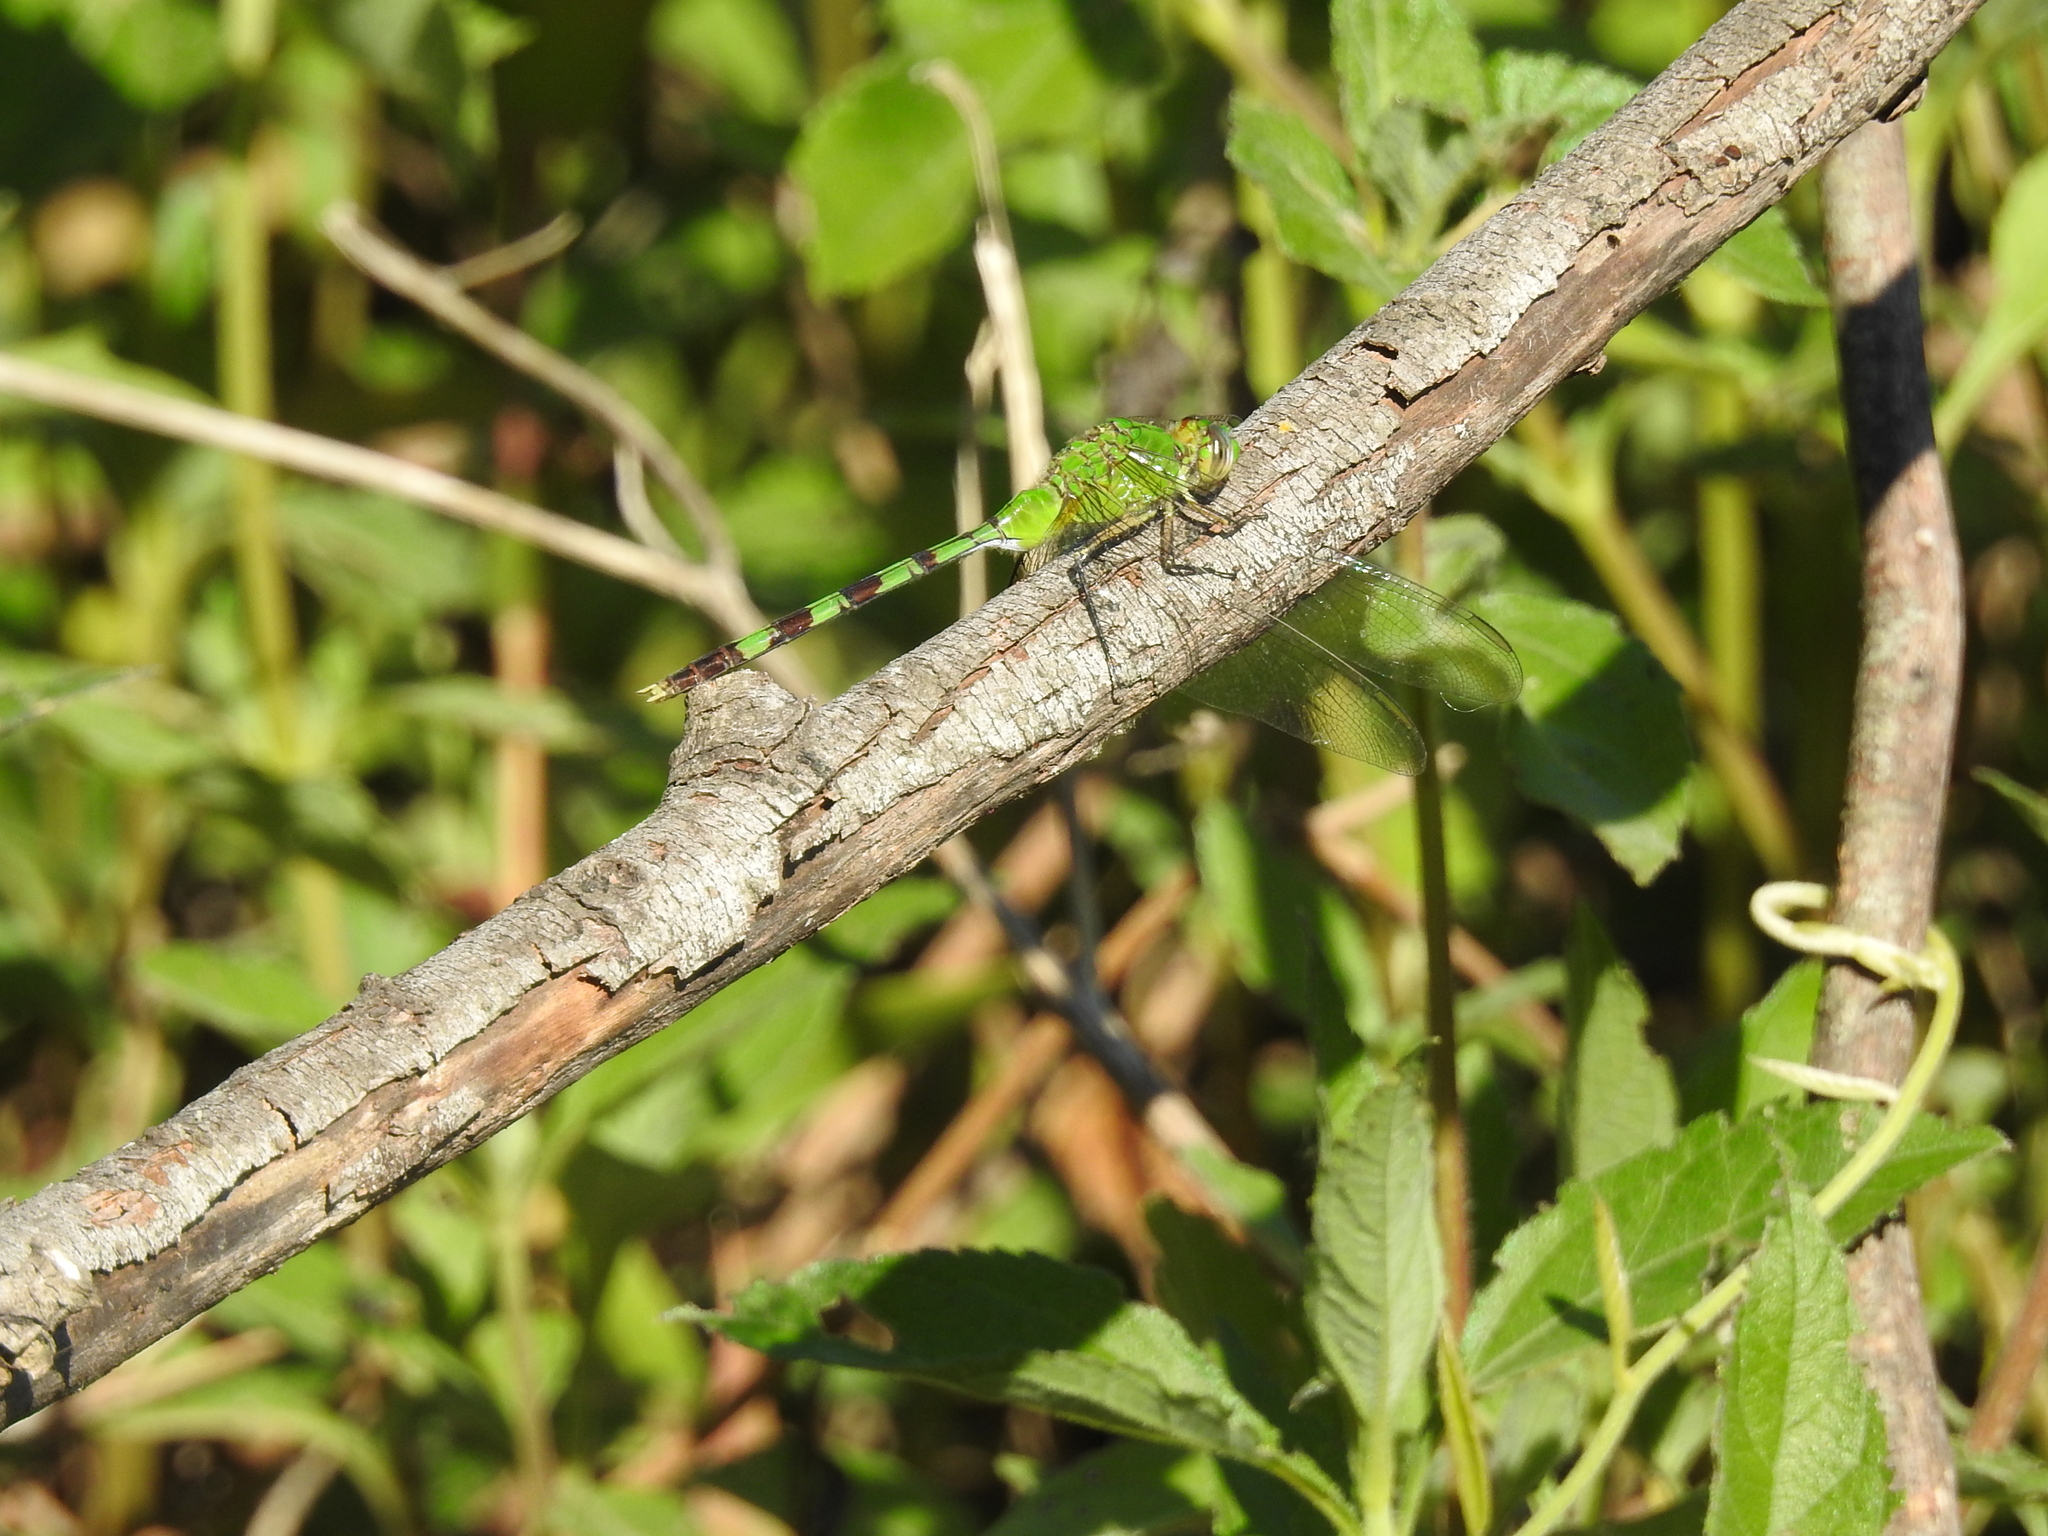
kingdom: Animalia
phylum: Arthropoda
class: Insecta
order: Odonata
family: Libellulidae
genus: Erythemis
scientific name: Erythemis vesiculosa
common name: Great pondhawk
